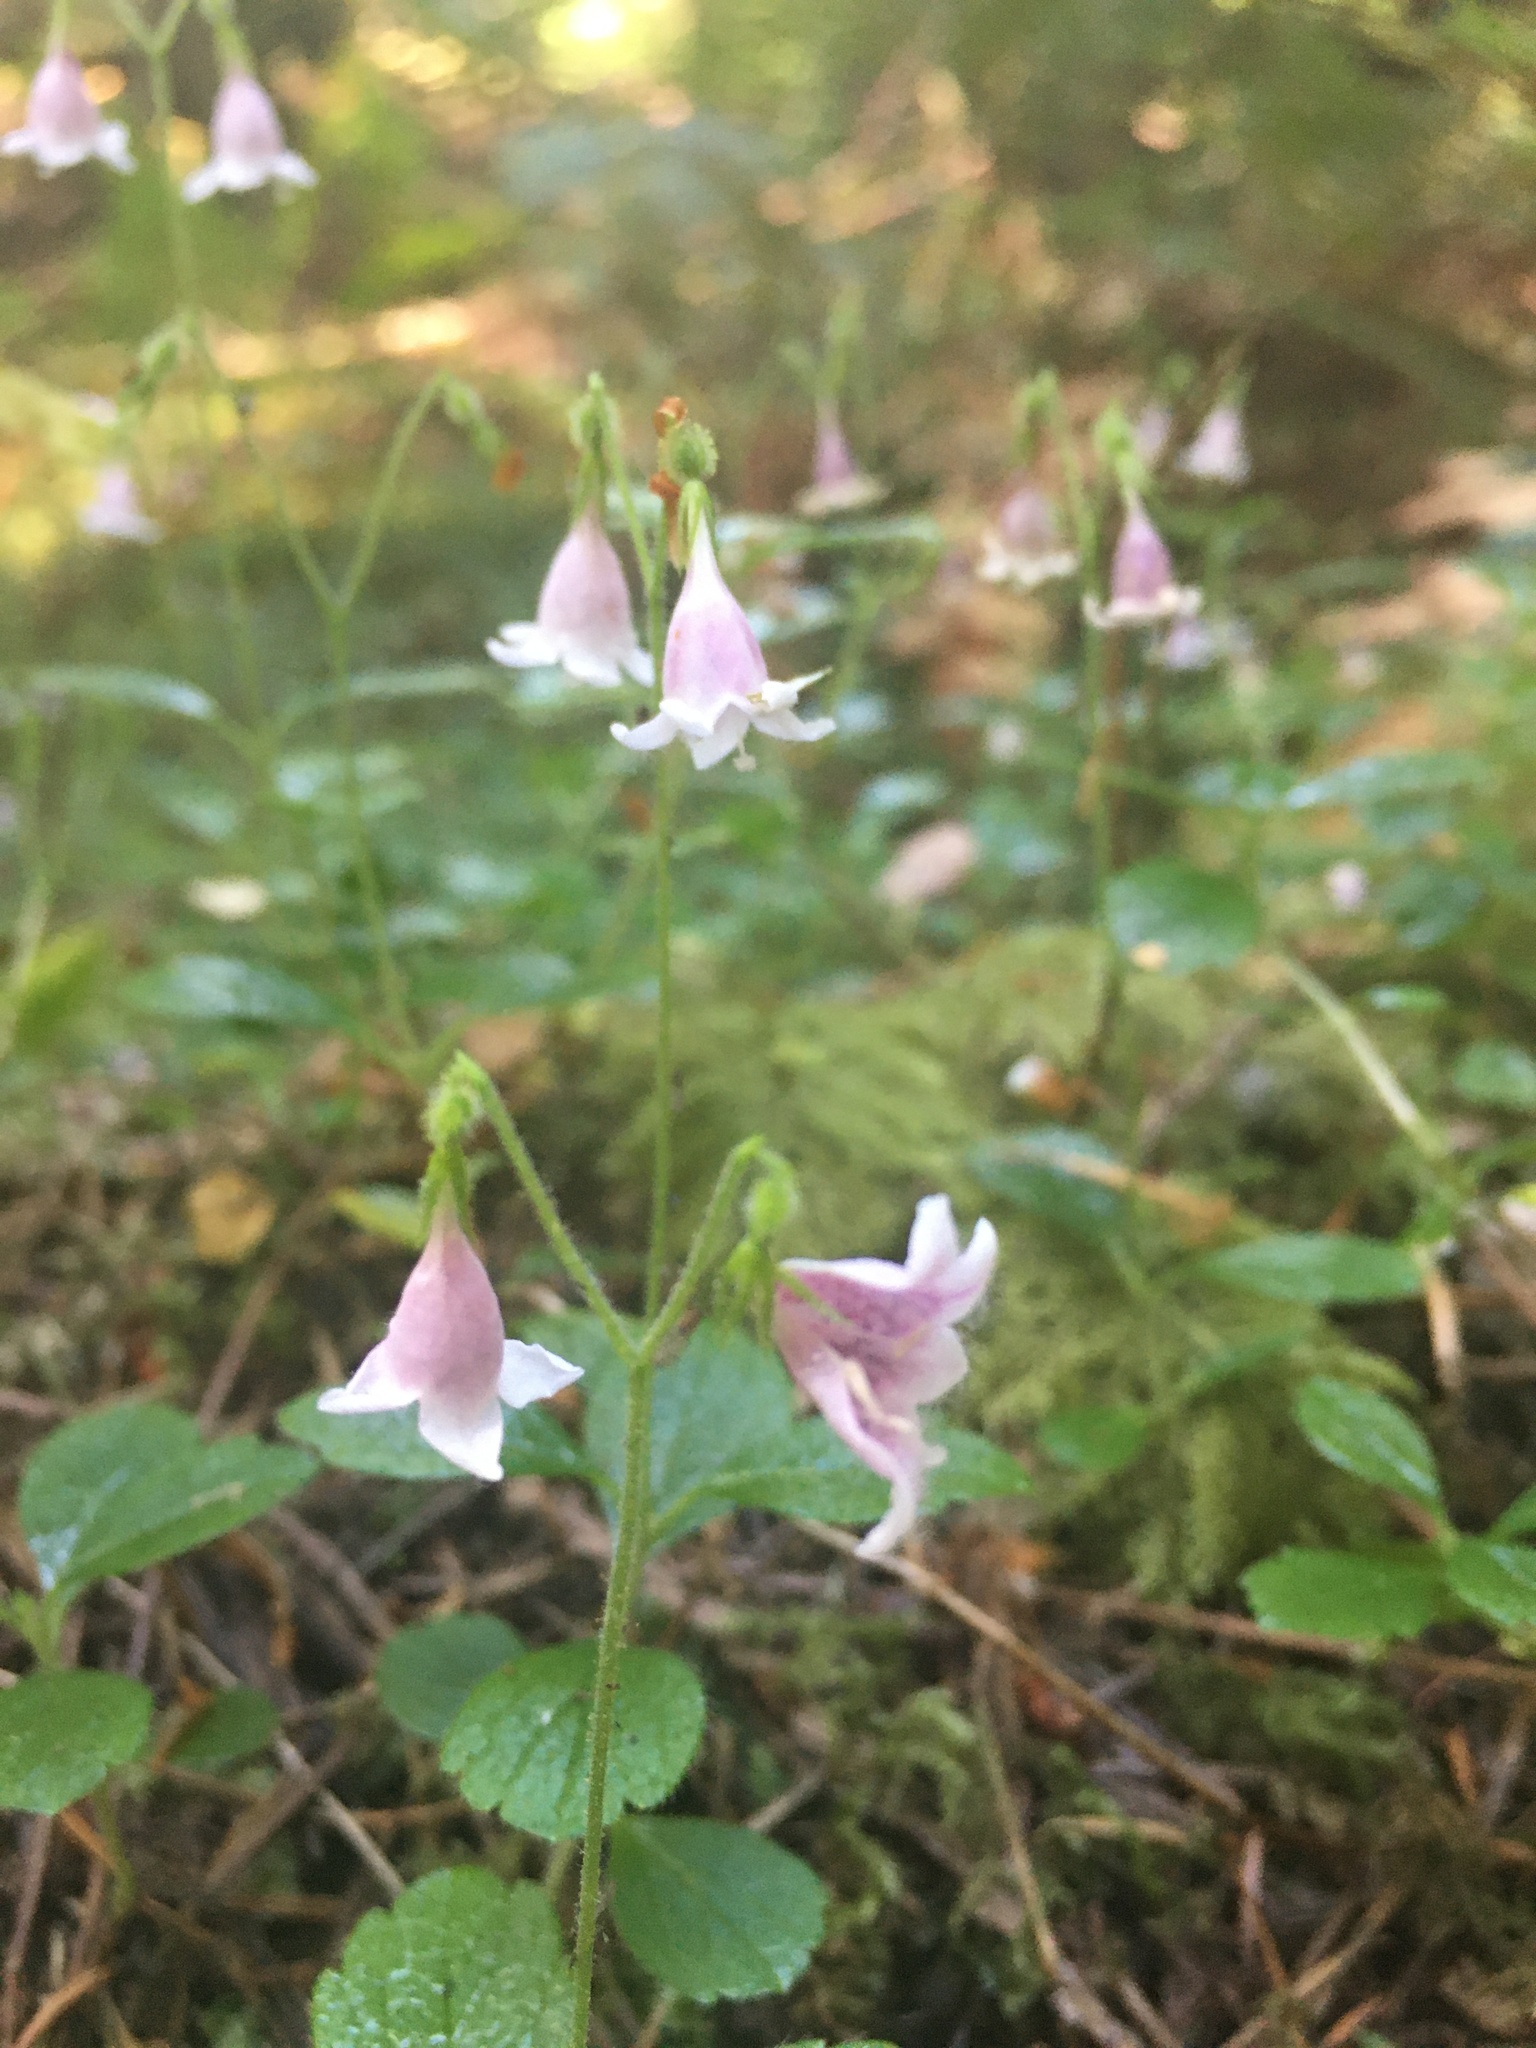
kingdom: Plantae
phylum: Tracheophyta
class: Magnoliopsida
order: Dipsacales
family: Caprifoliaceae
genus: Linnaea
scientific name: Linnaea borealis
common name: Twinflower
